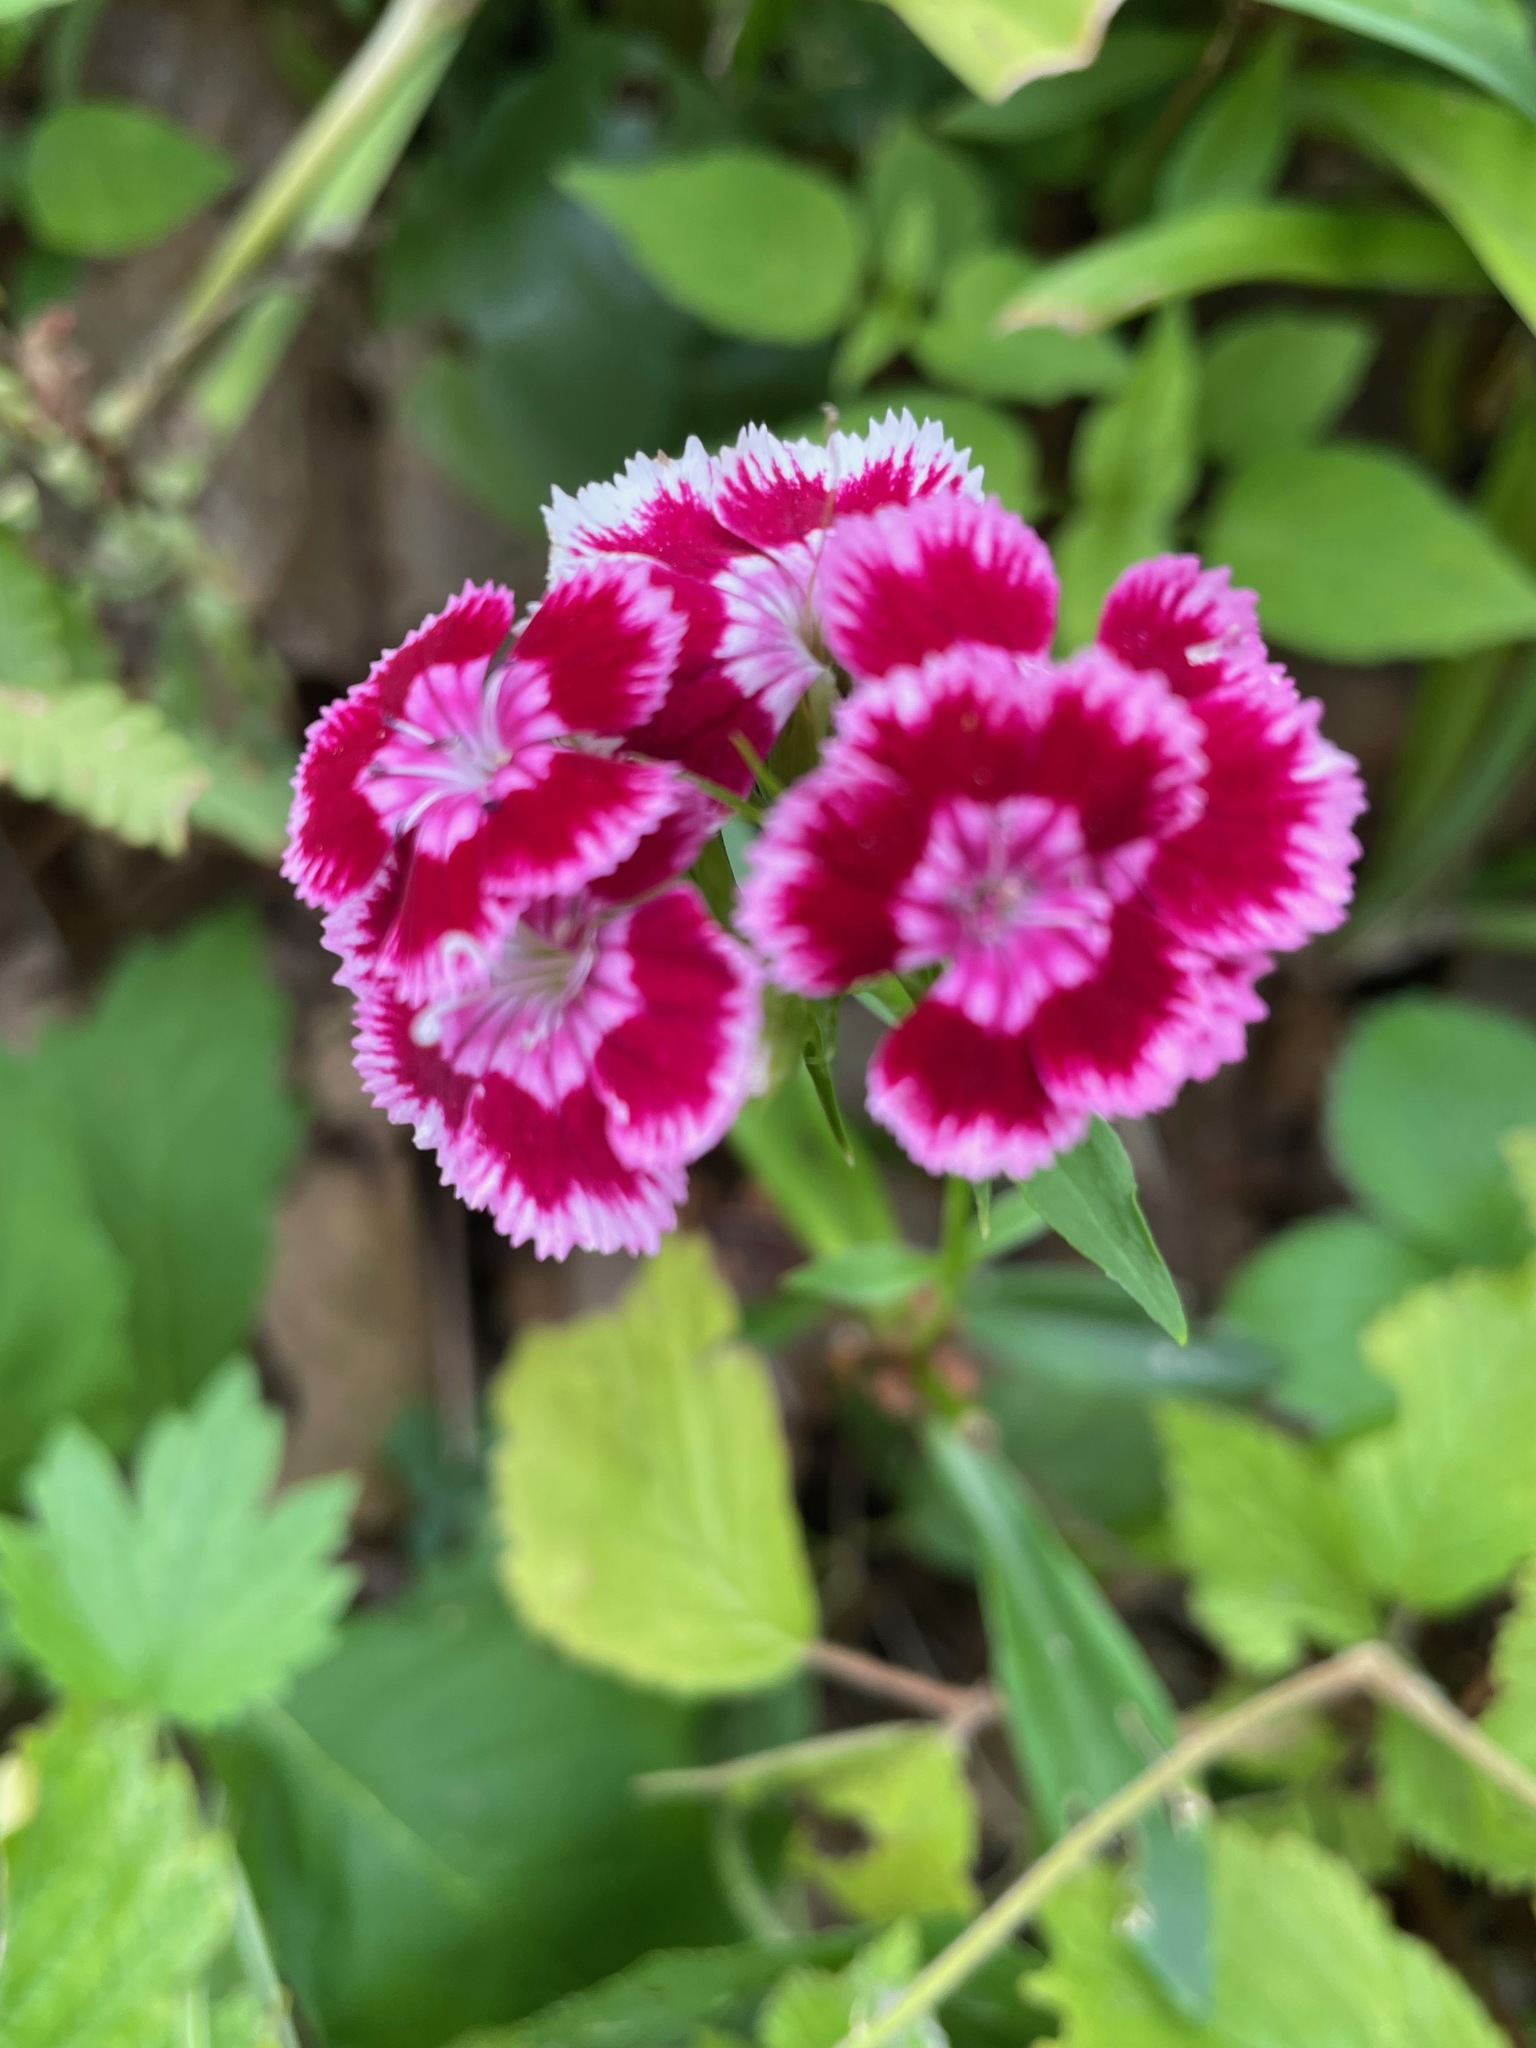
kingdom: Plantae
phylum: Tracheophyta
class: Magnoliopsida
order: Caryophyllales
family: Caryophyllaceae
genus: Dianthus
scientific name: Dianthus barbatus
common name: Sweet-william
